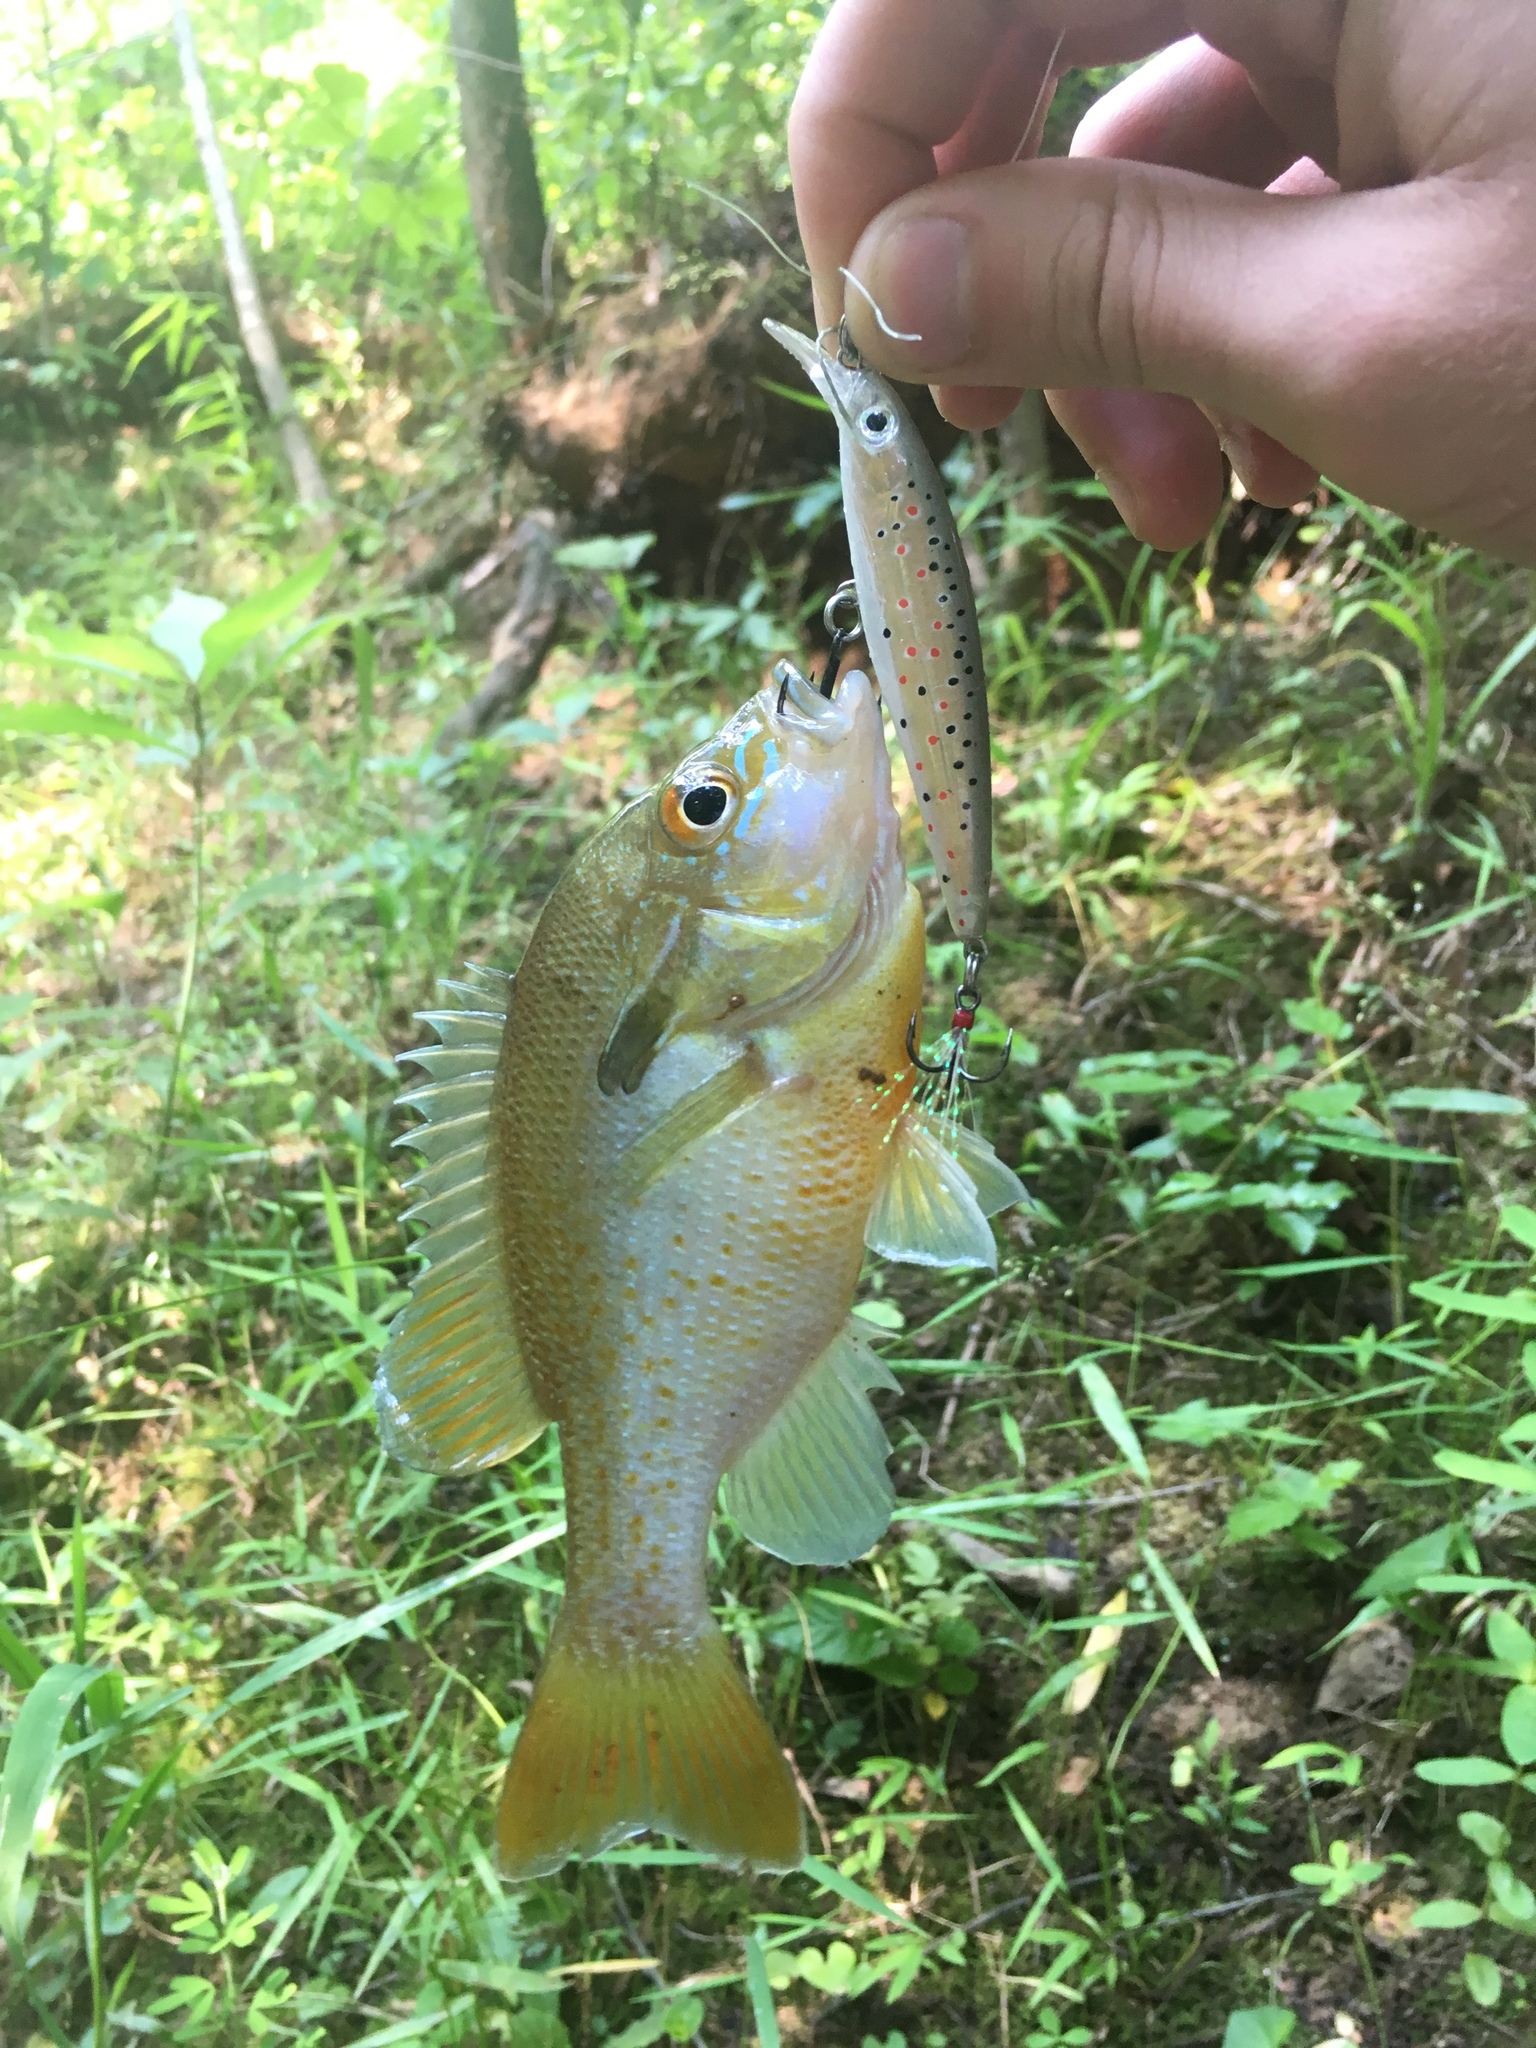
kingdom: Animalia
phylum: Chordata
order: Perciformes
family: Centrarchidae
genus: Lepomis
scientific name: Lepomis auritus
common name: Redbreast sunfish
